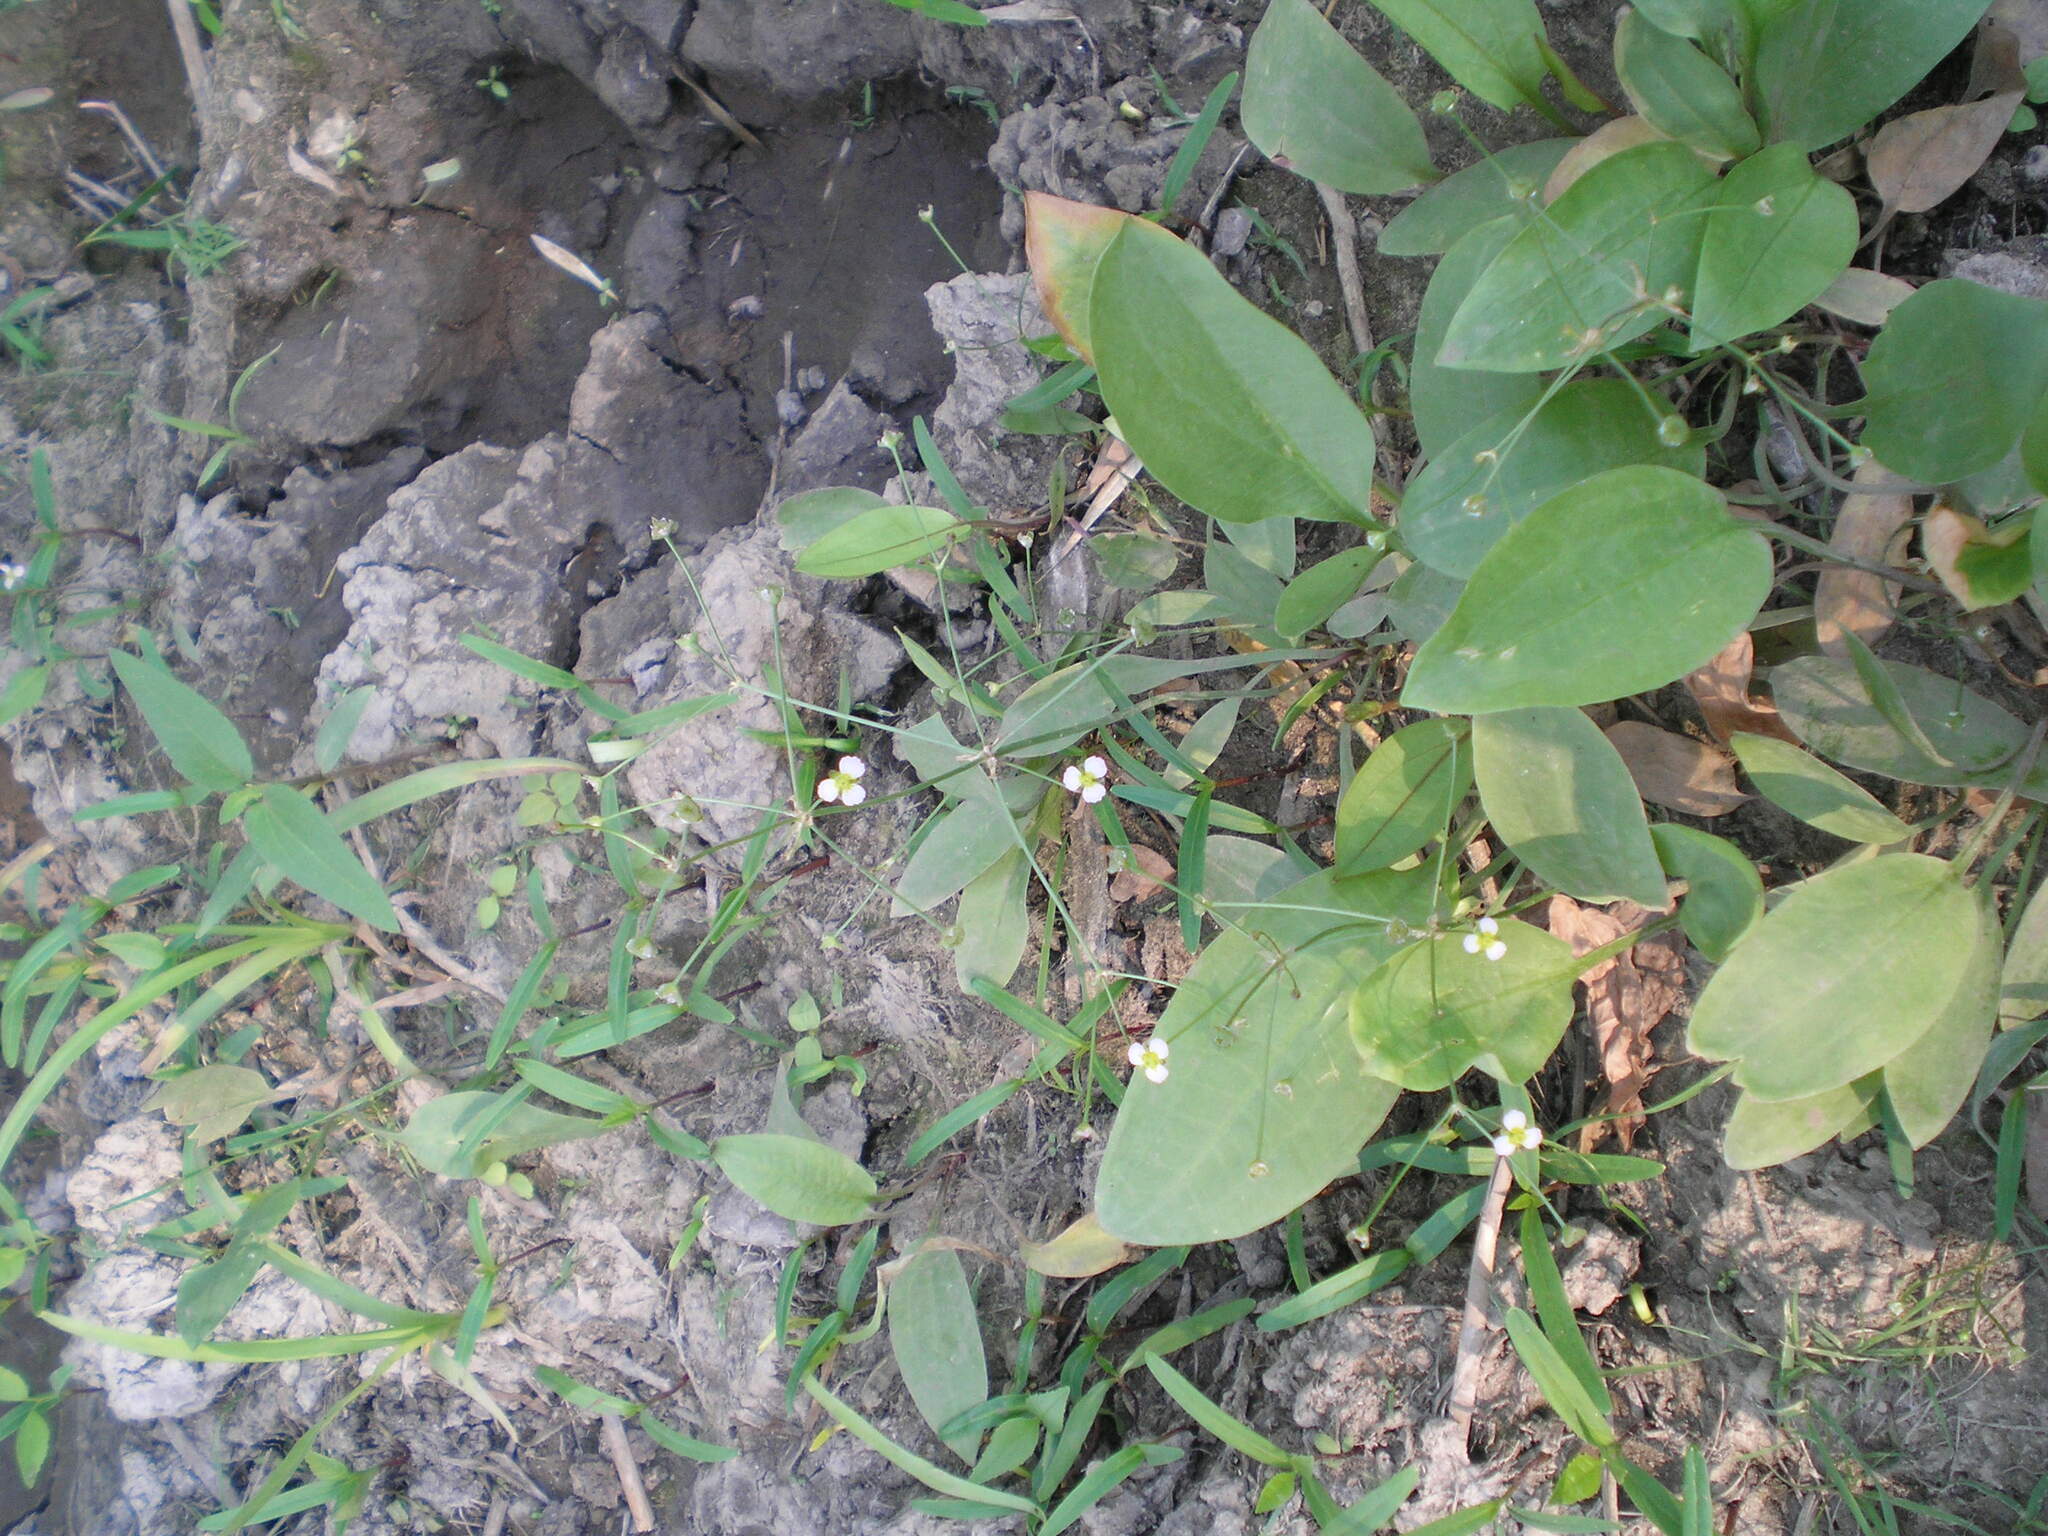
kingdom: Plantae
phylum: Tracheophyta
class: Liliopsida
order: Alismatales
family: Alismataceae
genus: Alisma
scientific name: Alisma plantago-aquatica
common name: Water-plantain
